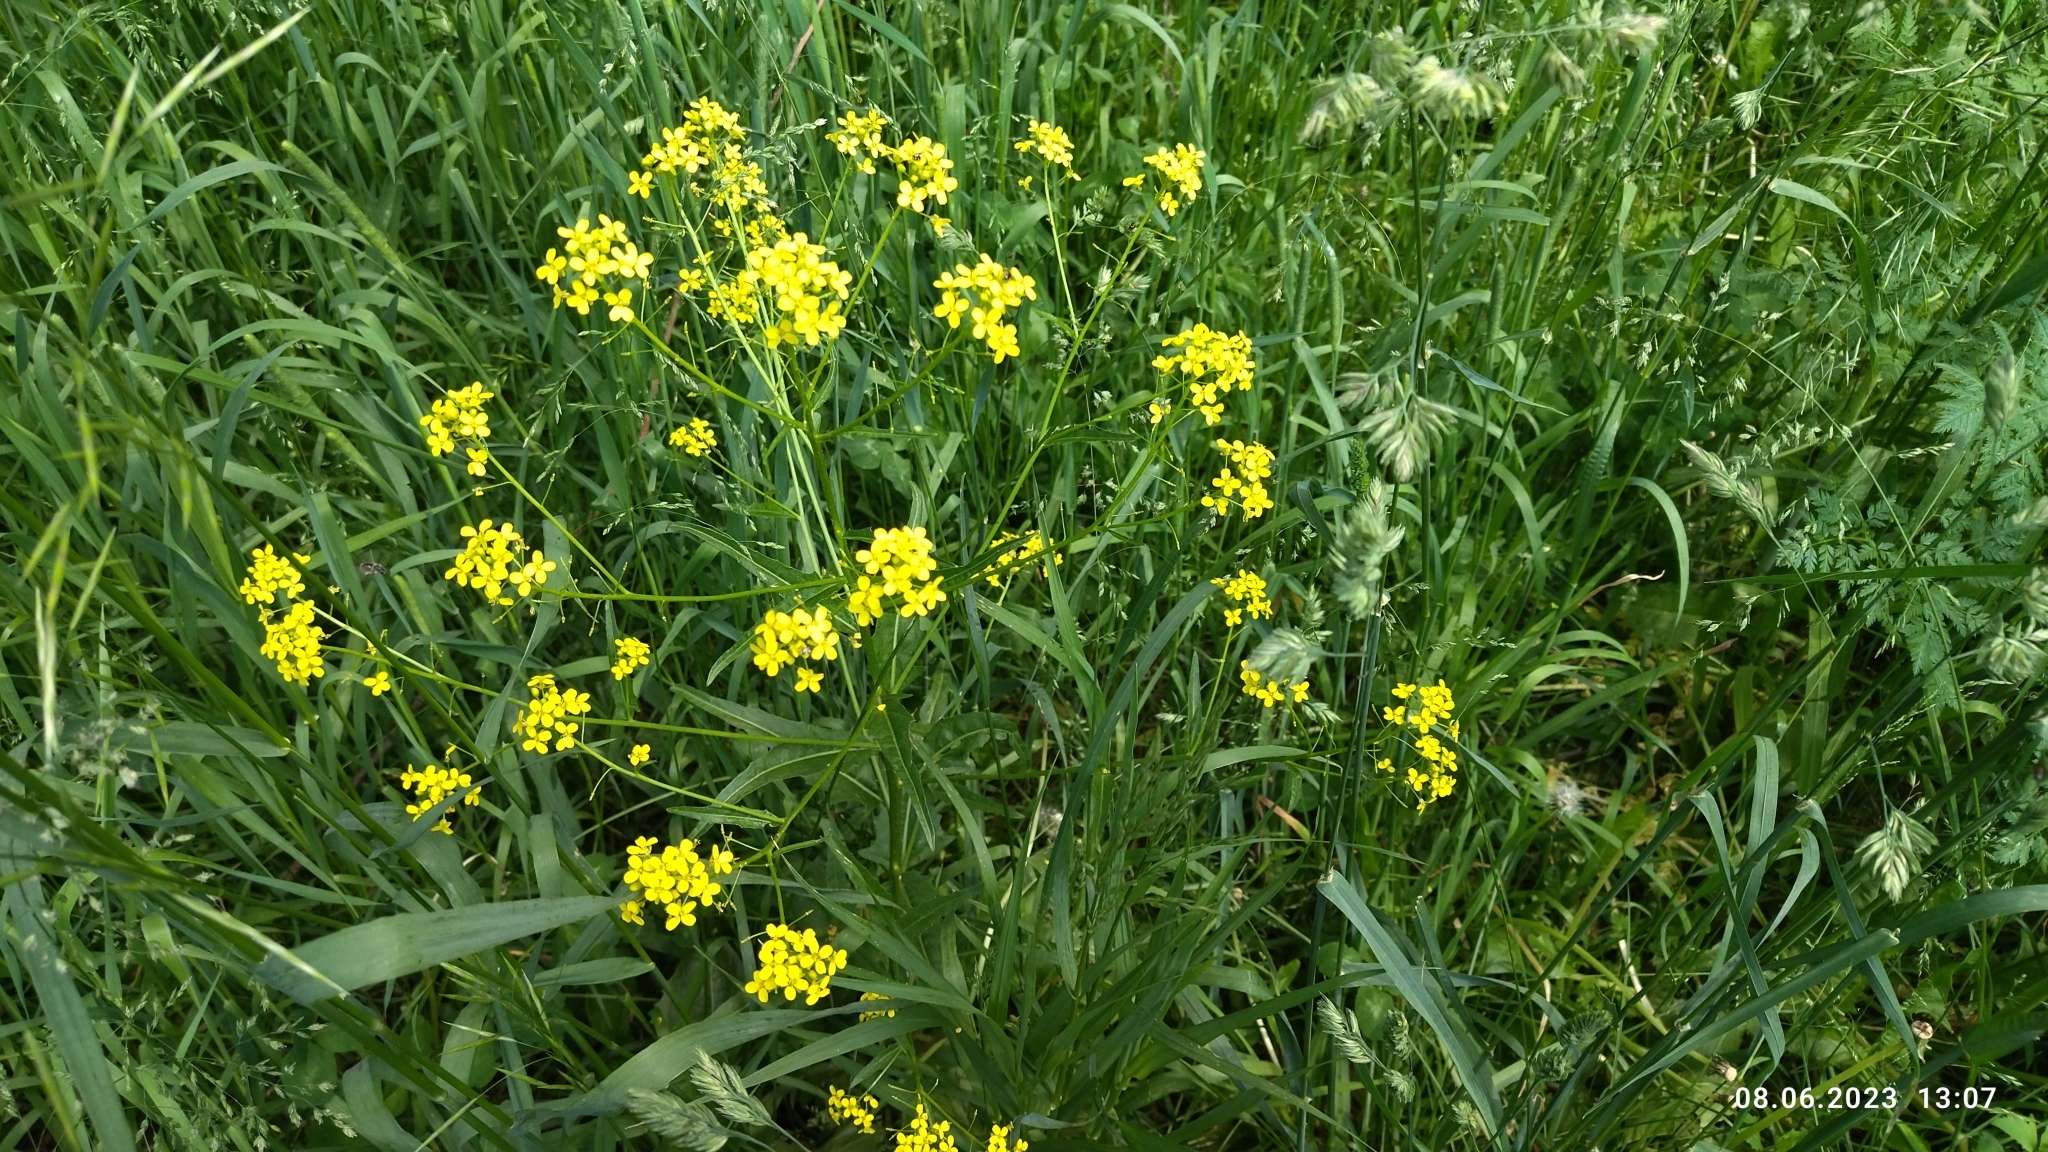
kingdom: Plantae
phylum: Tracheophyta
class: Magnoliopsida
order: Brassicales
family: Brassicaceae
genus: Bunias
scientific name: Bunias orientalis
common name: Warty-cabbage
